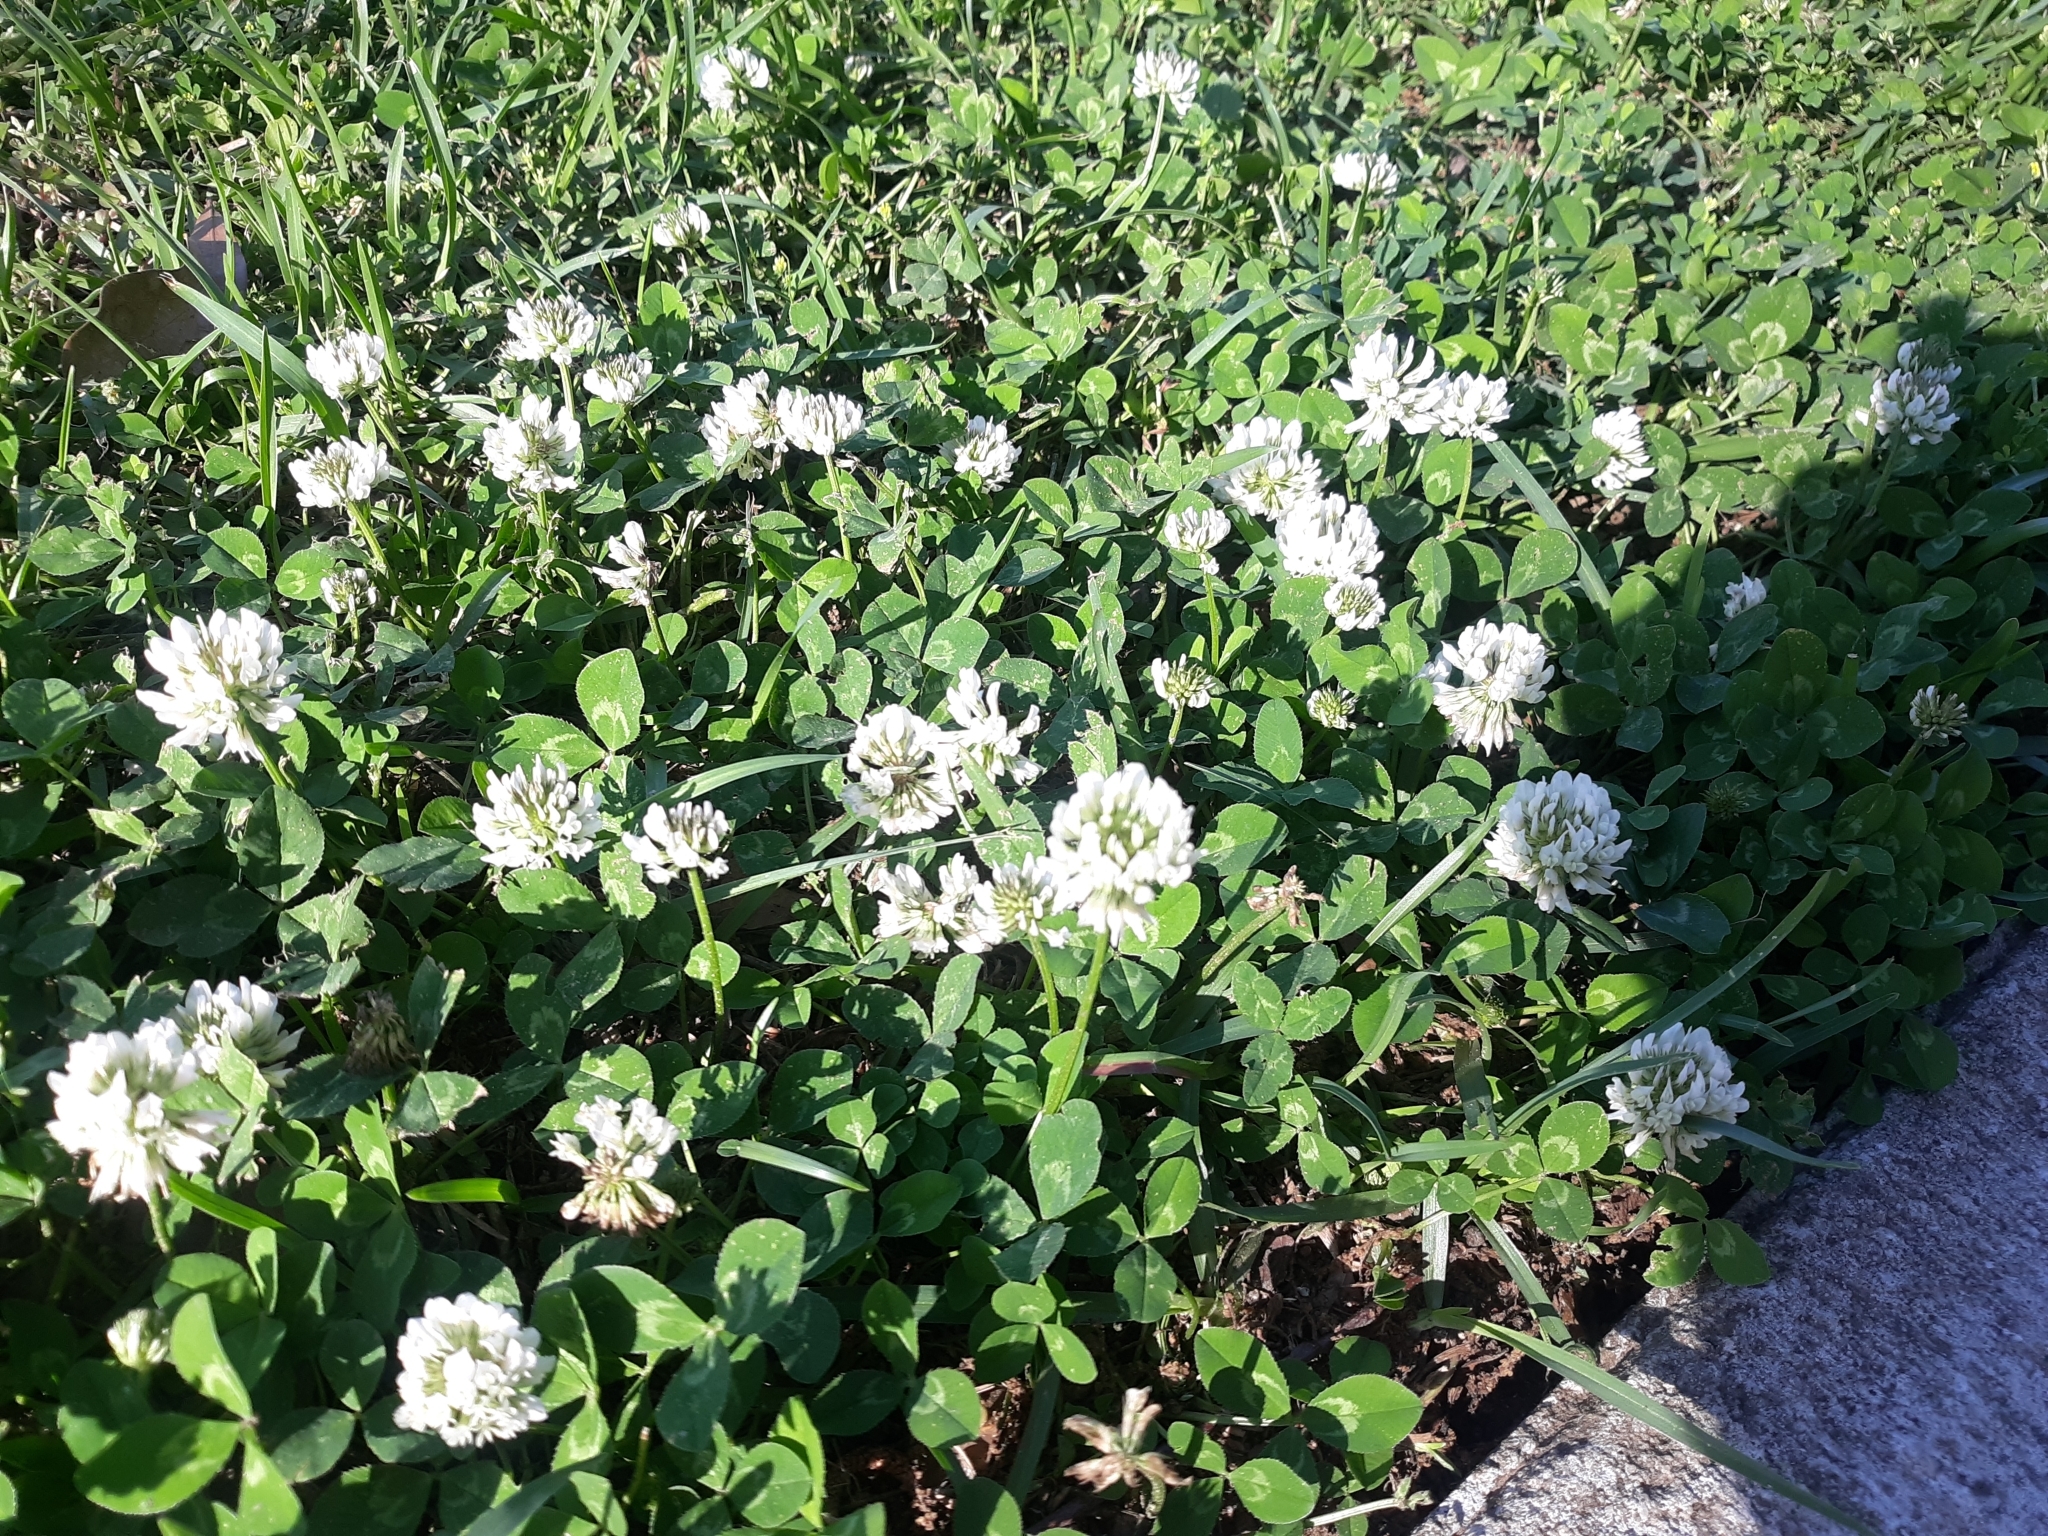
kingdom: Plantae
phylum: Tracheophyta
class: Magnoliopsida
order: Fabales
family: Fabaceae
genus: Trifolium
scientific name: Trifolium repens
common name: White clover
